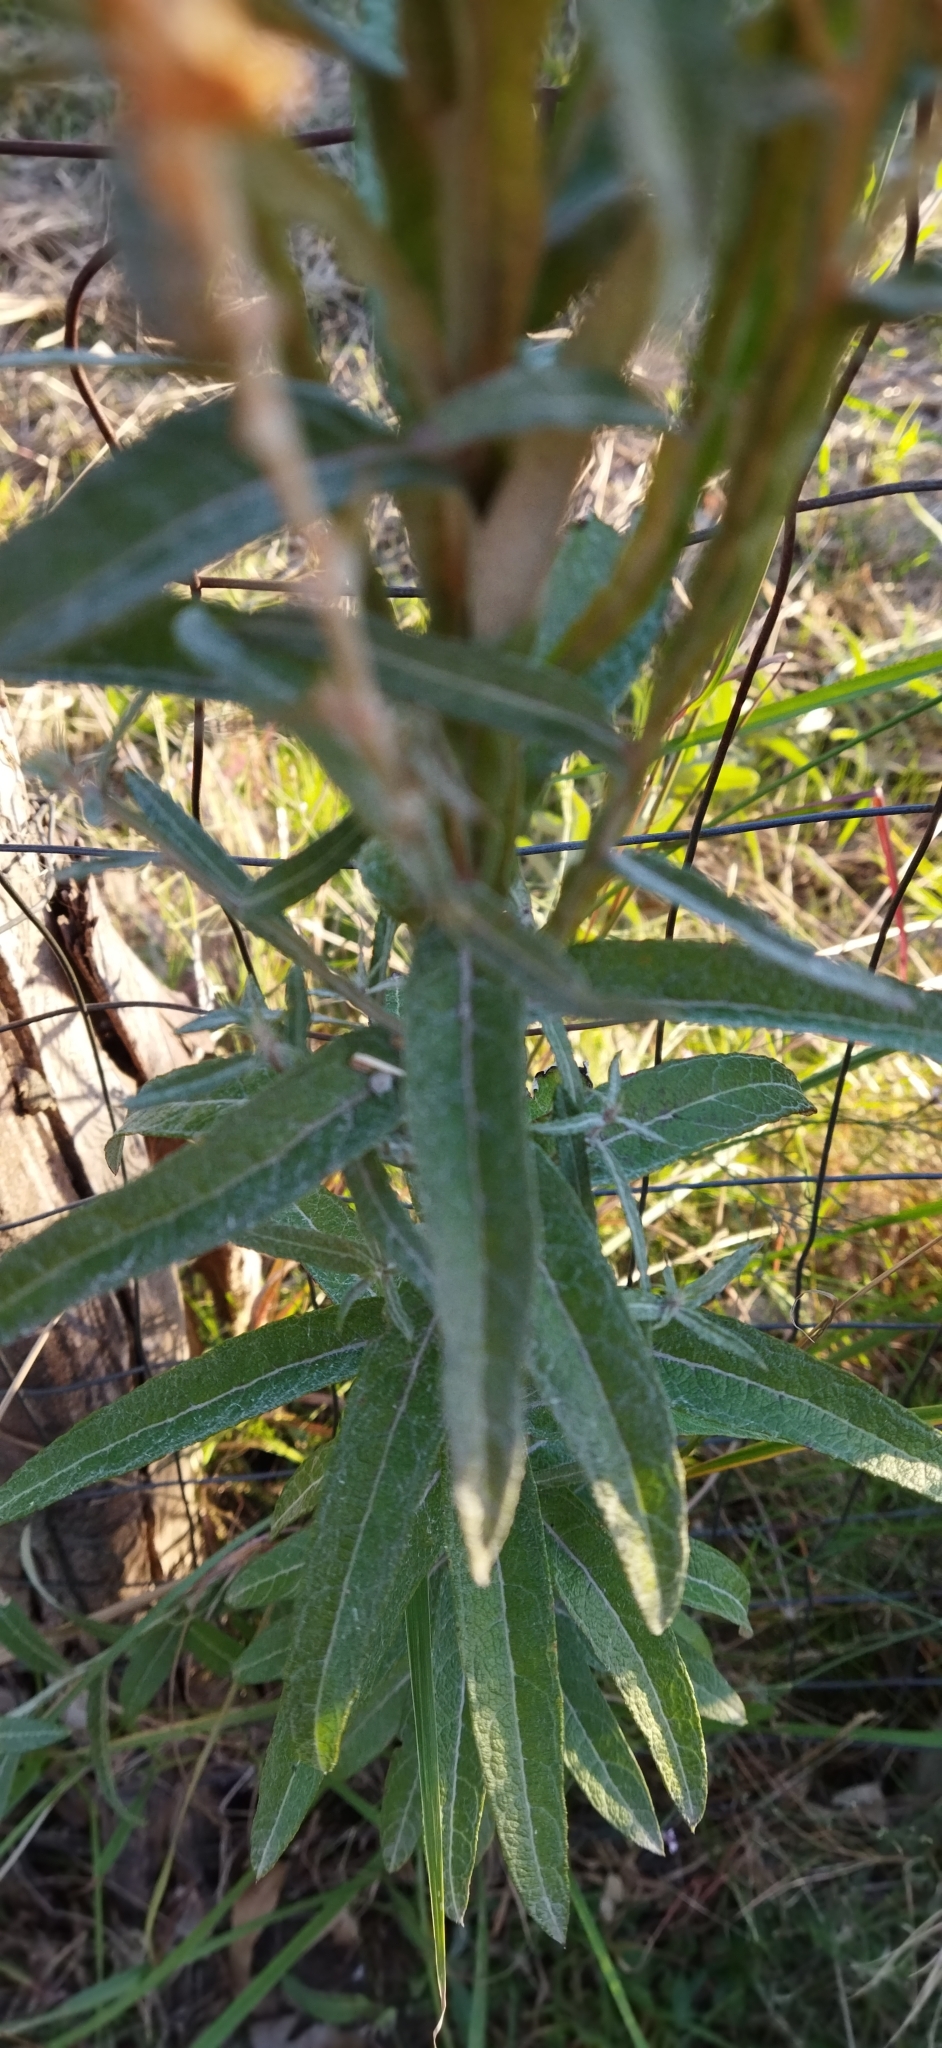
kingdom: Plantae
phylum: Tracheophyta
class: Magnoliopsida
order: Asterales
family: Asteraceae
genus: Pterocaulon
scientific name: Pterocaulon balansae
